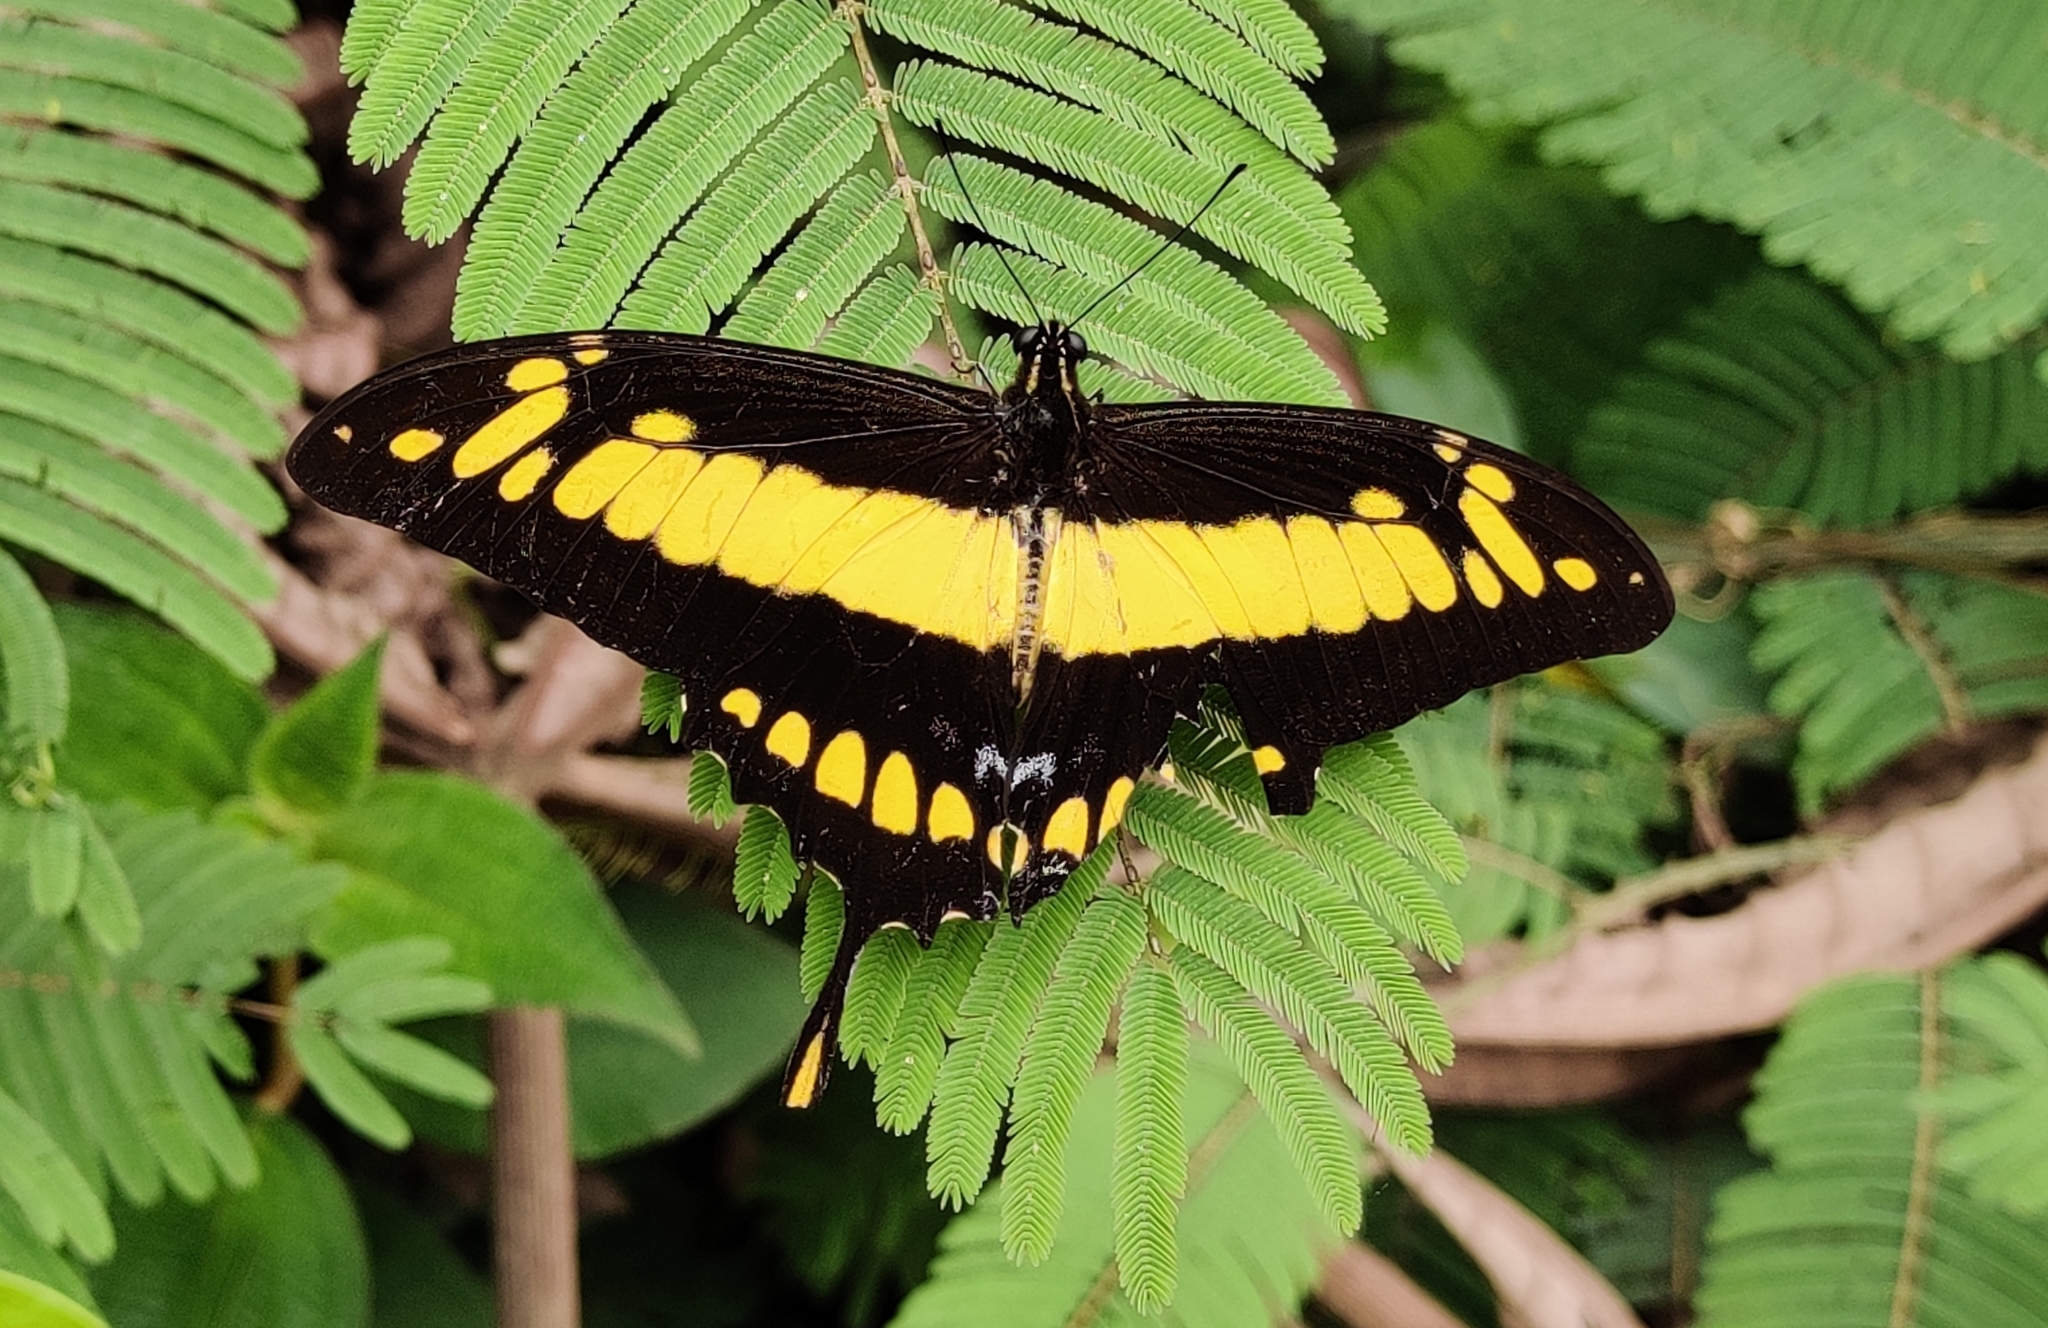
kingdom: Animalia
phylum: Arthropoda
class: Insecta
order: Lepidoptera
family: Papilionidae
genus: Papilio
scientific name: Papilio thoas
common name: King swallowtail
